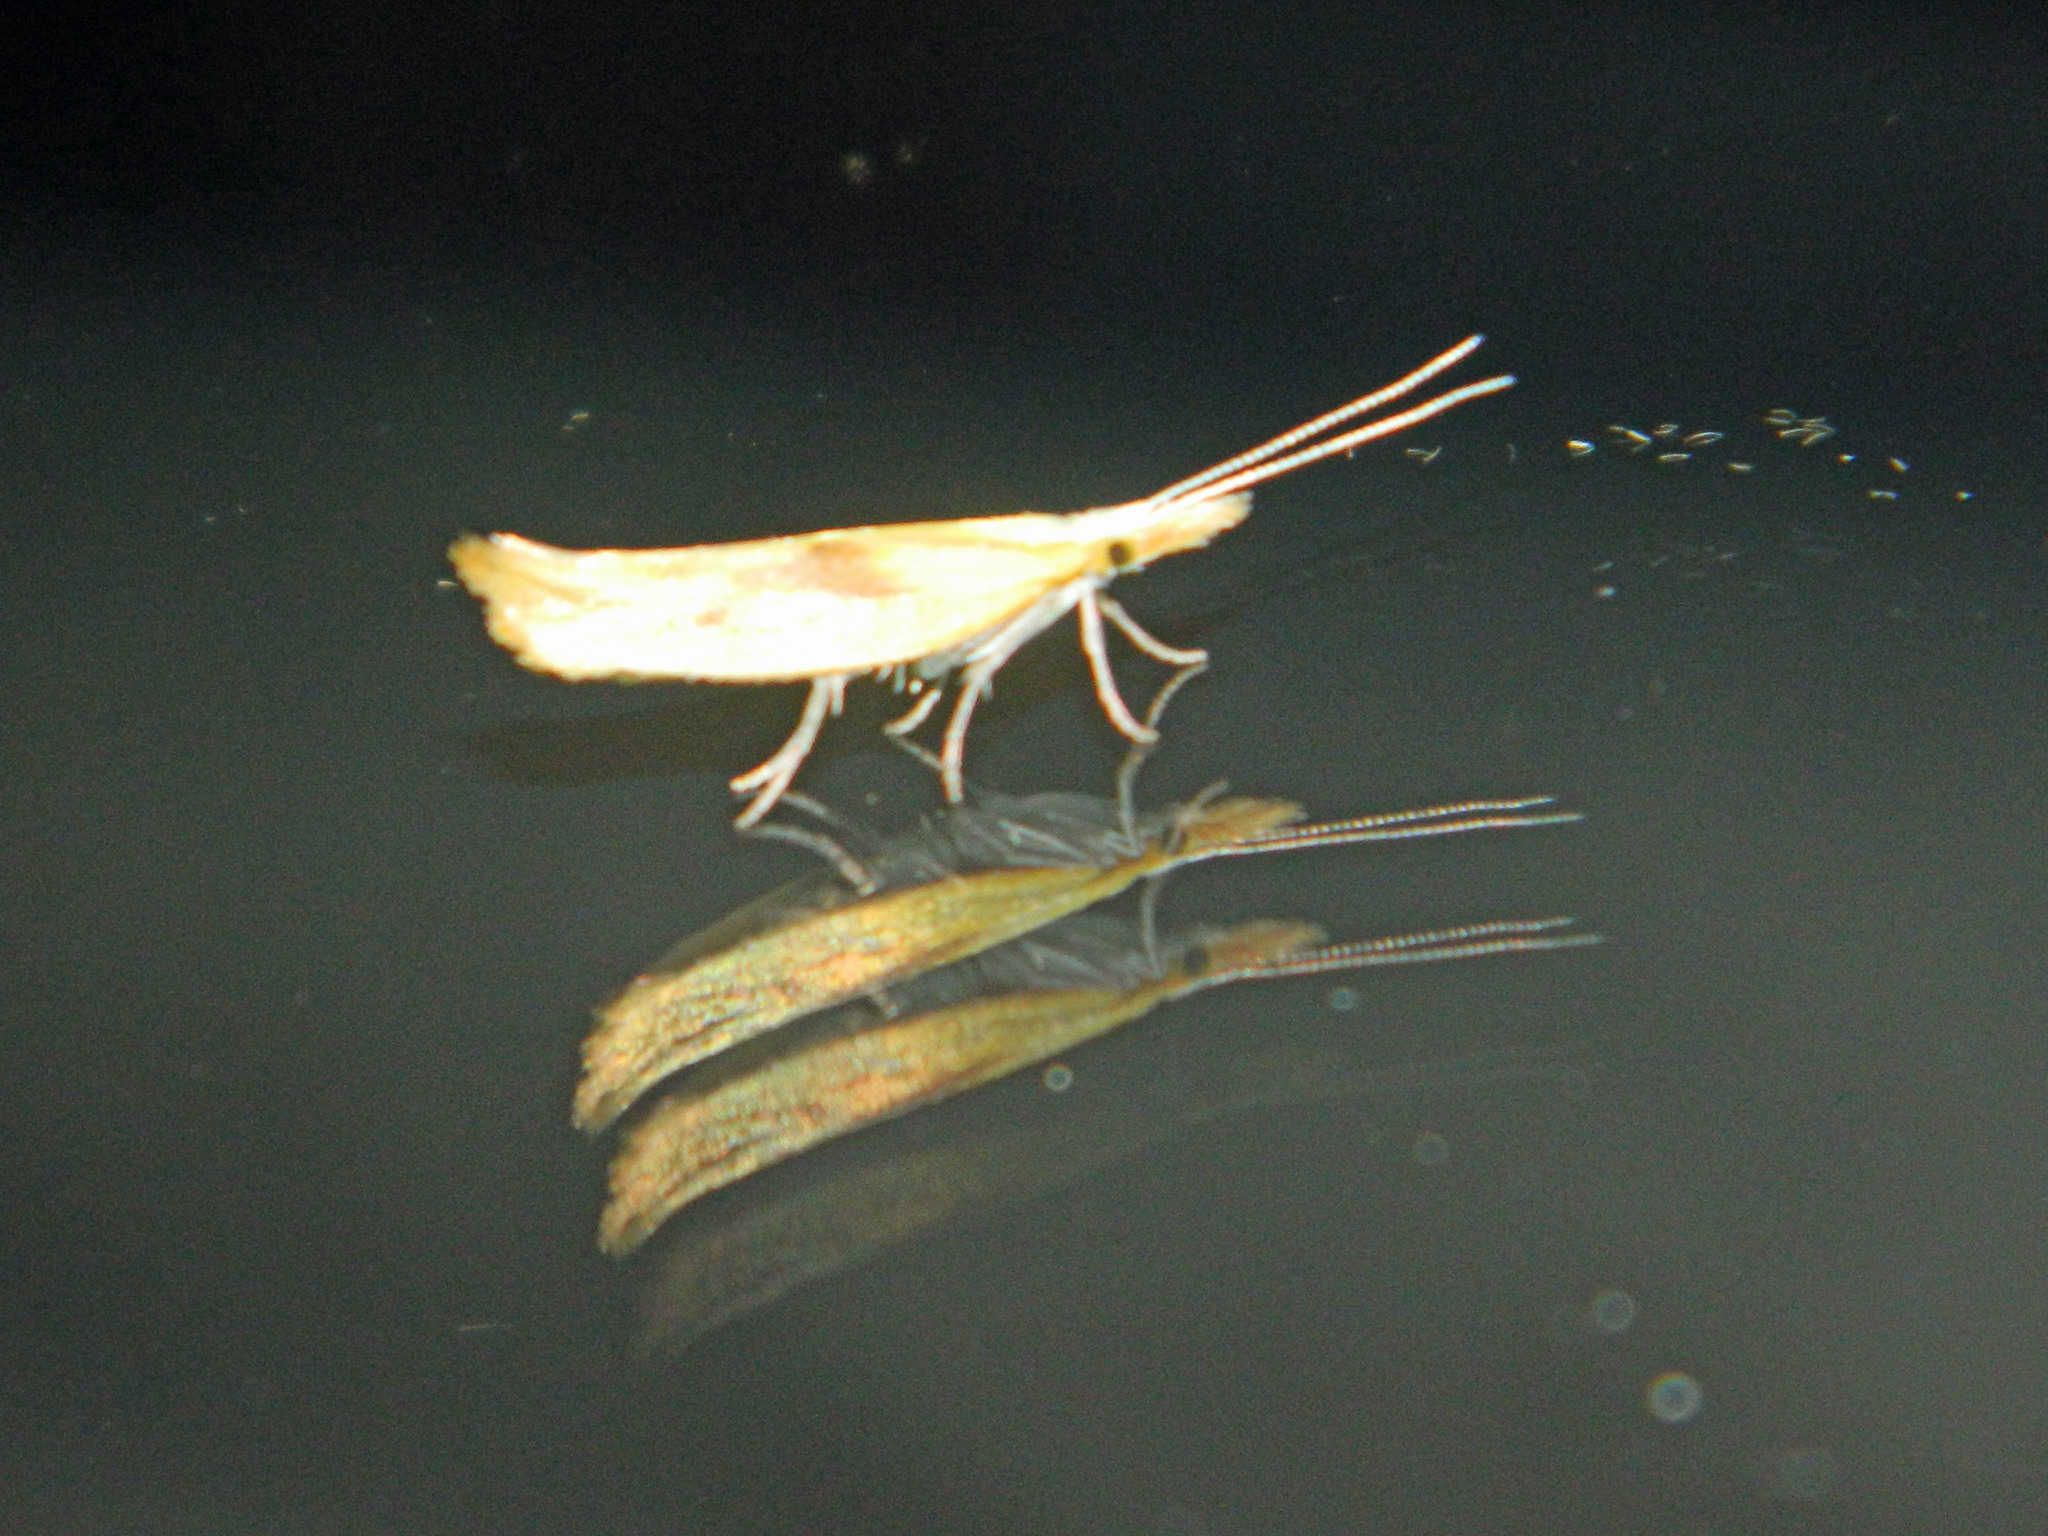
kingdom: Animalia
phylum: Arthropoda
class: Insecta
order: Lepidoptera
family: Ypsolophidae
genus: Ypsolopha
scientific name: Ypsolopha canariella
